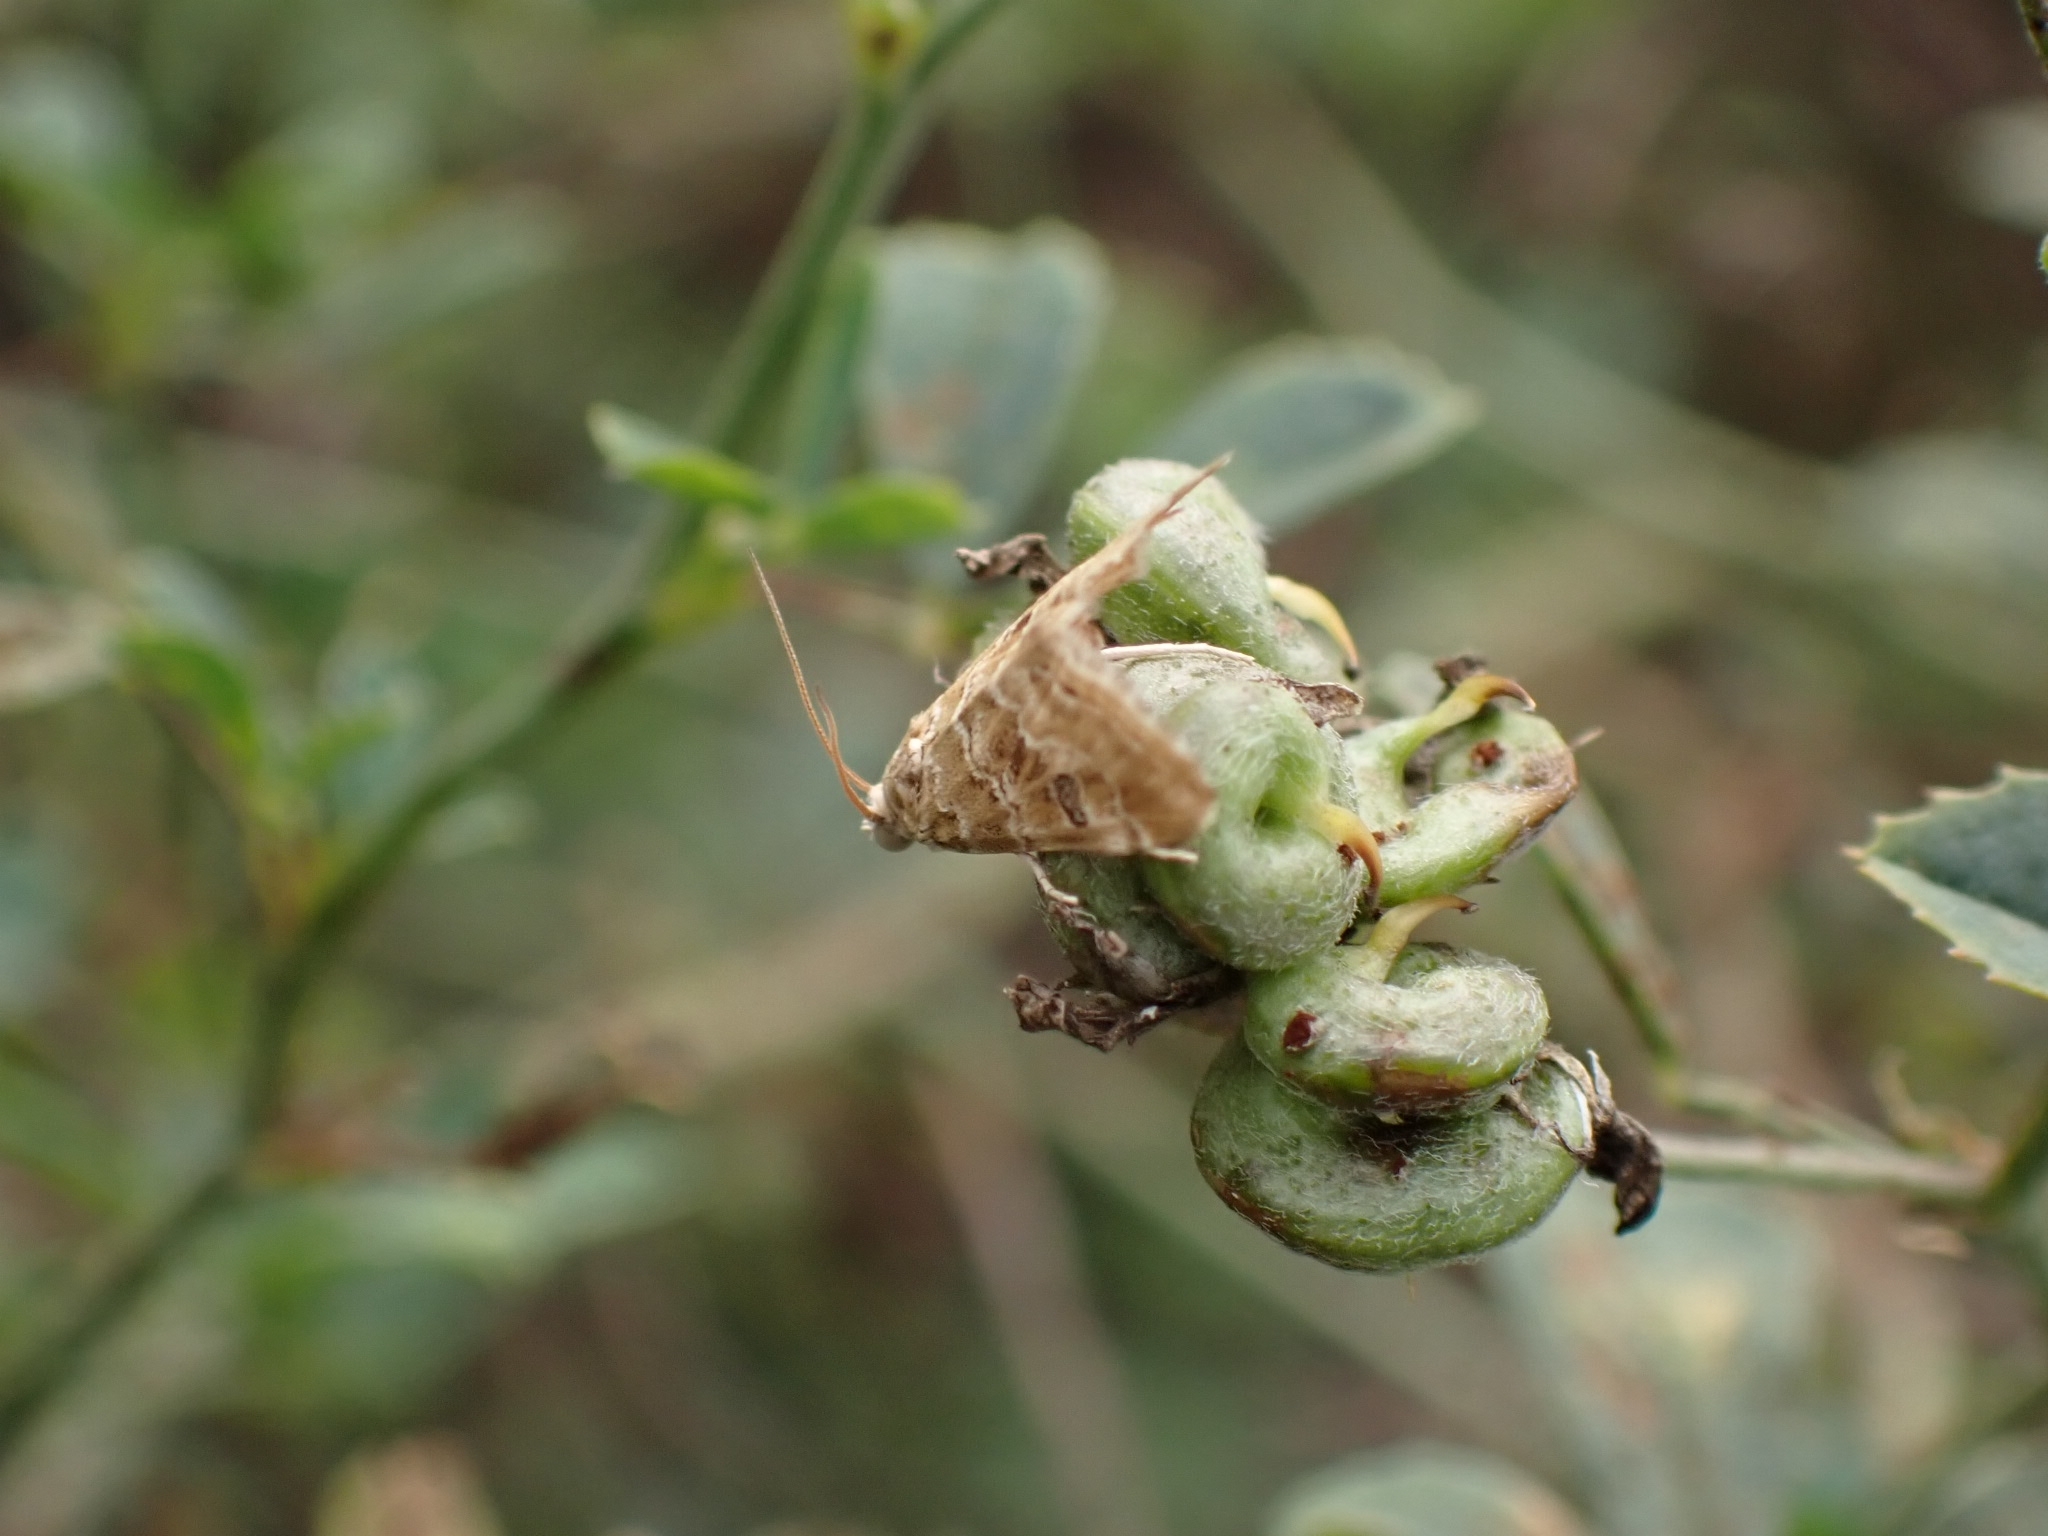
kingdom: Animalia
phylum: Arthropoda
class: Insecta
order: Lepidoptera
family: Crambidae
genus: Hellula
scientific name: Hellula undalis
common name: Cabbage webworm
